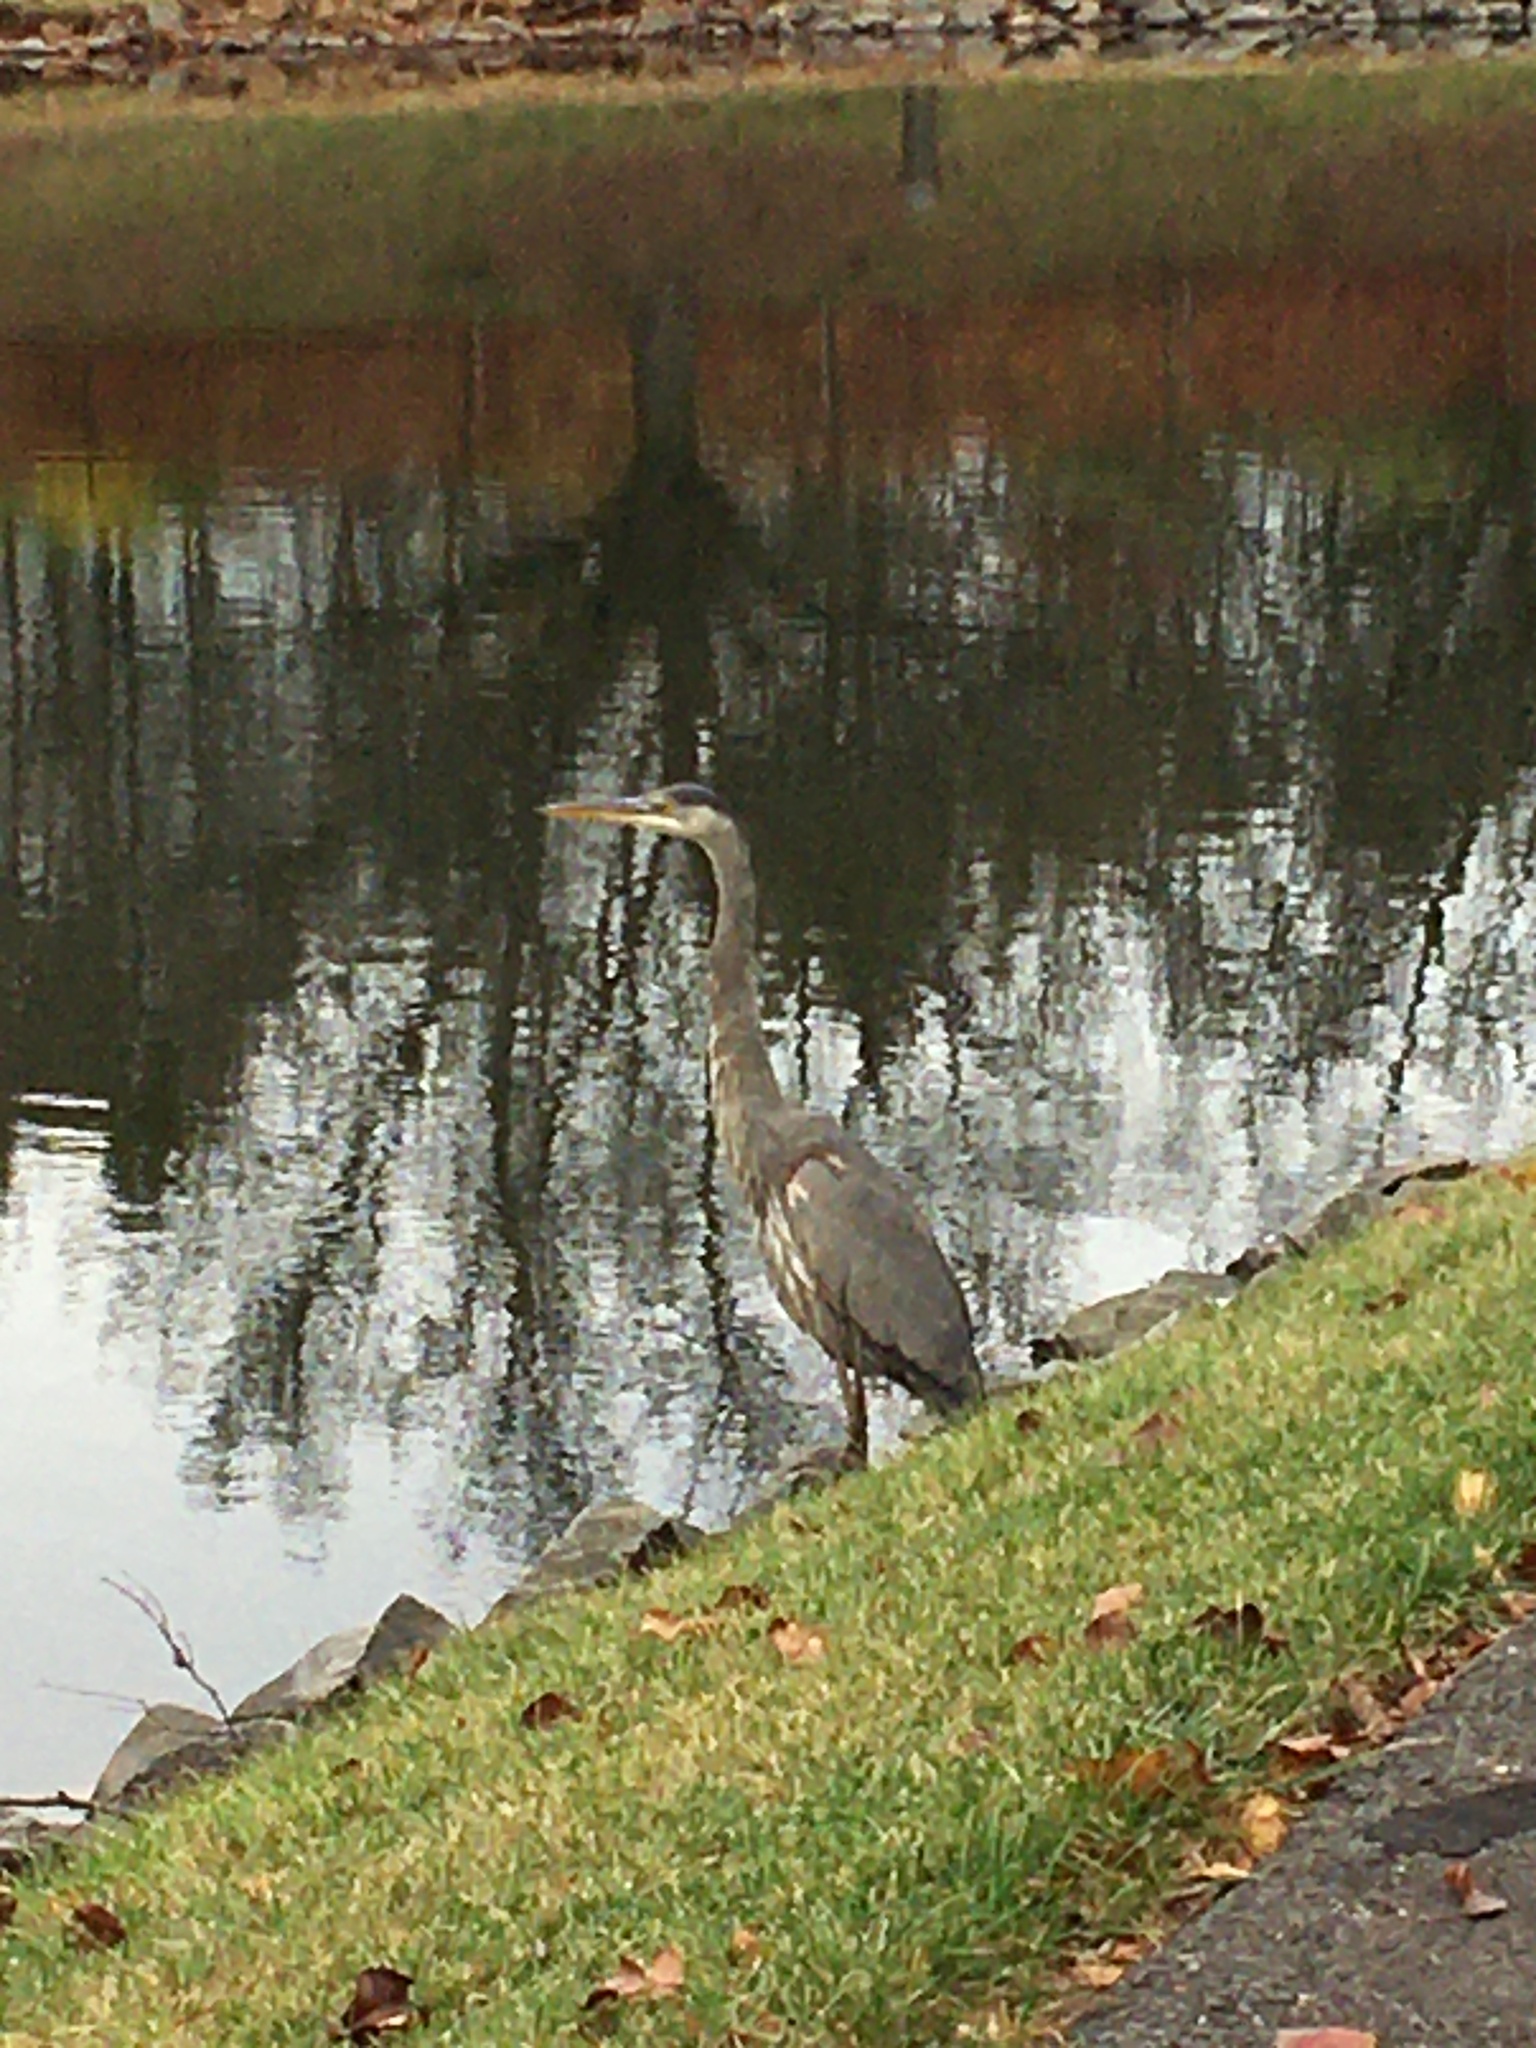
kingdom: Animalia
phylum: Chordata
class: Aves
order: Pelecaniformes
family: Ardeidae
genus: Ardea
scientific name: Ardea herodias
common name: Great blue heron
